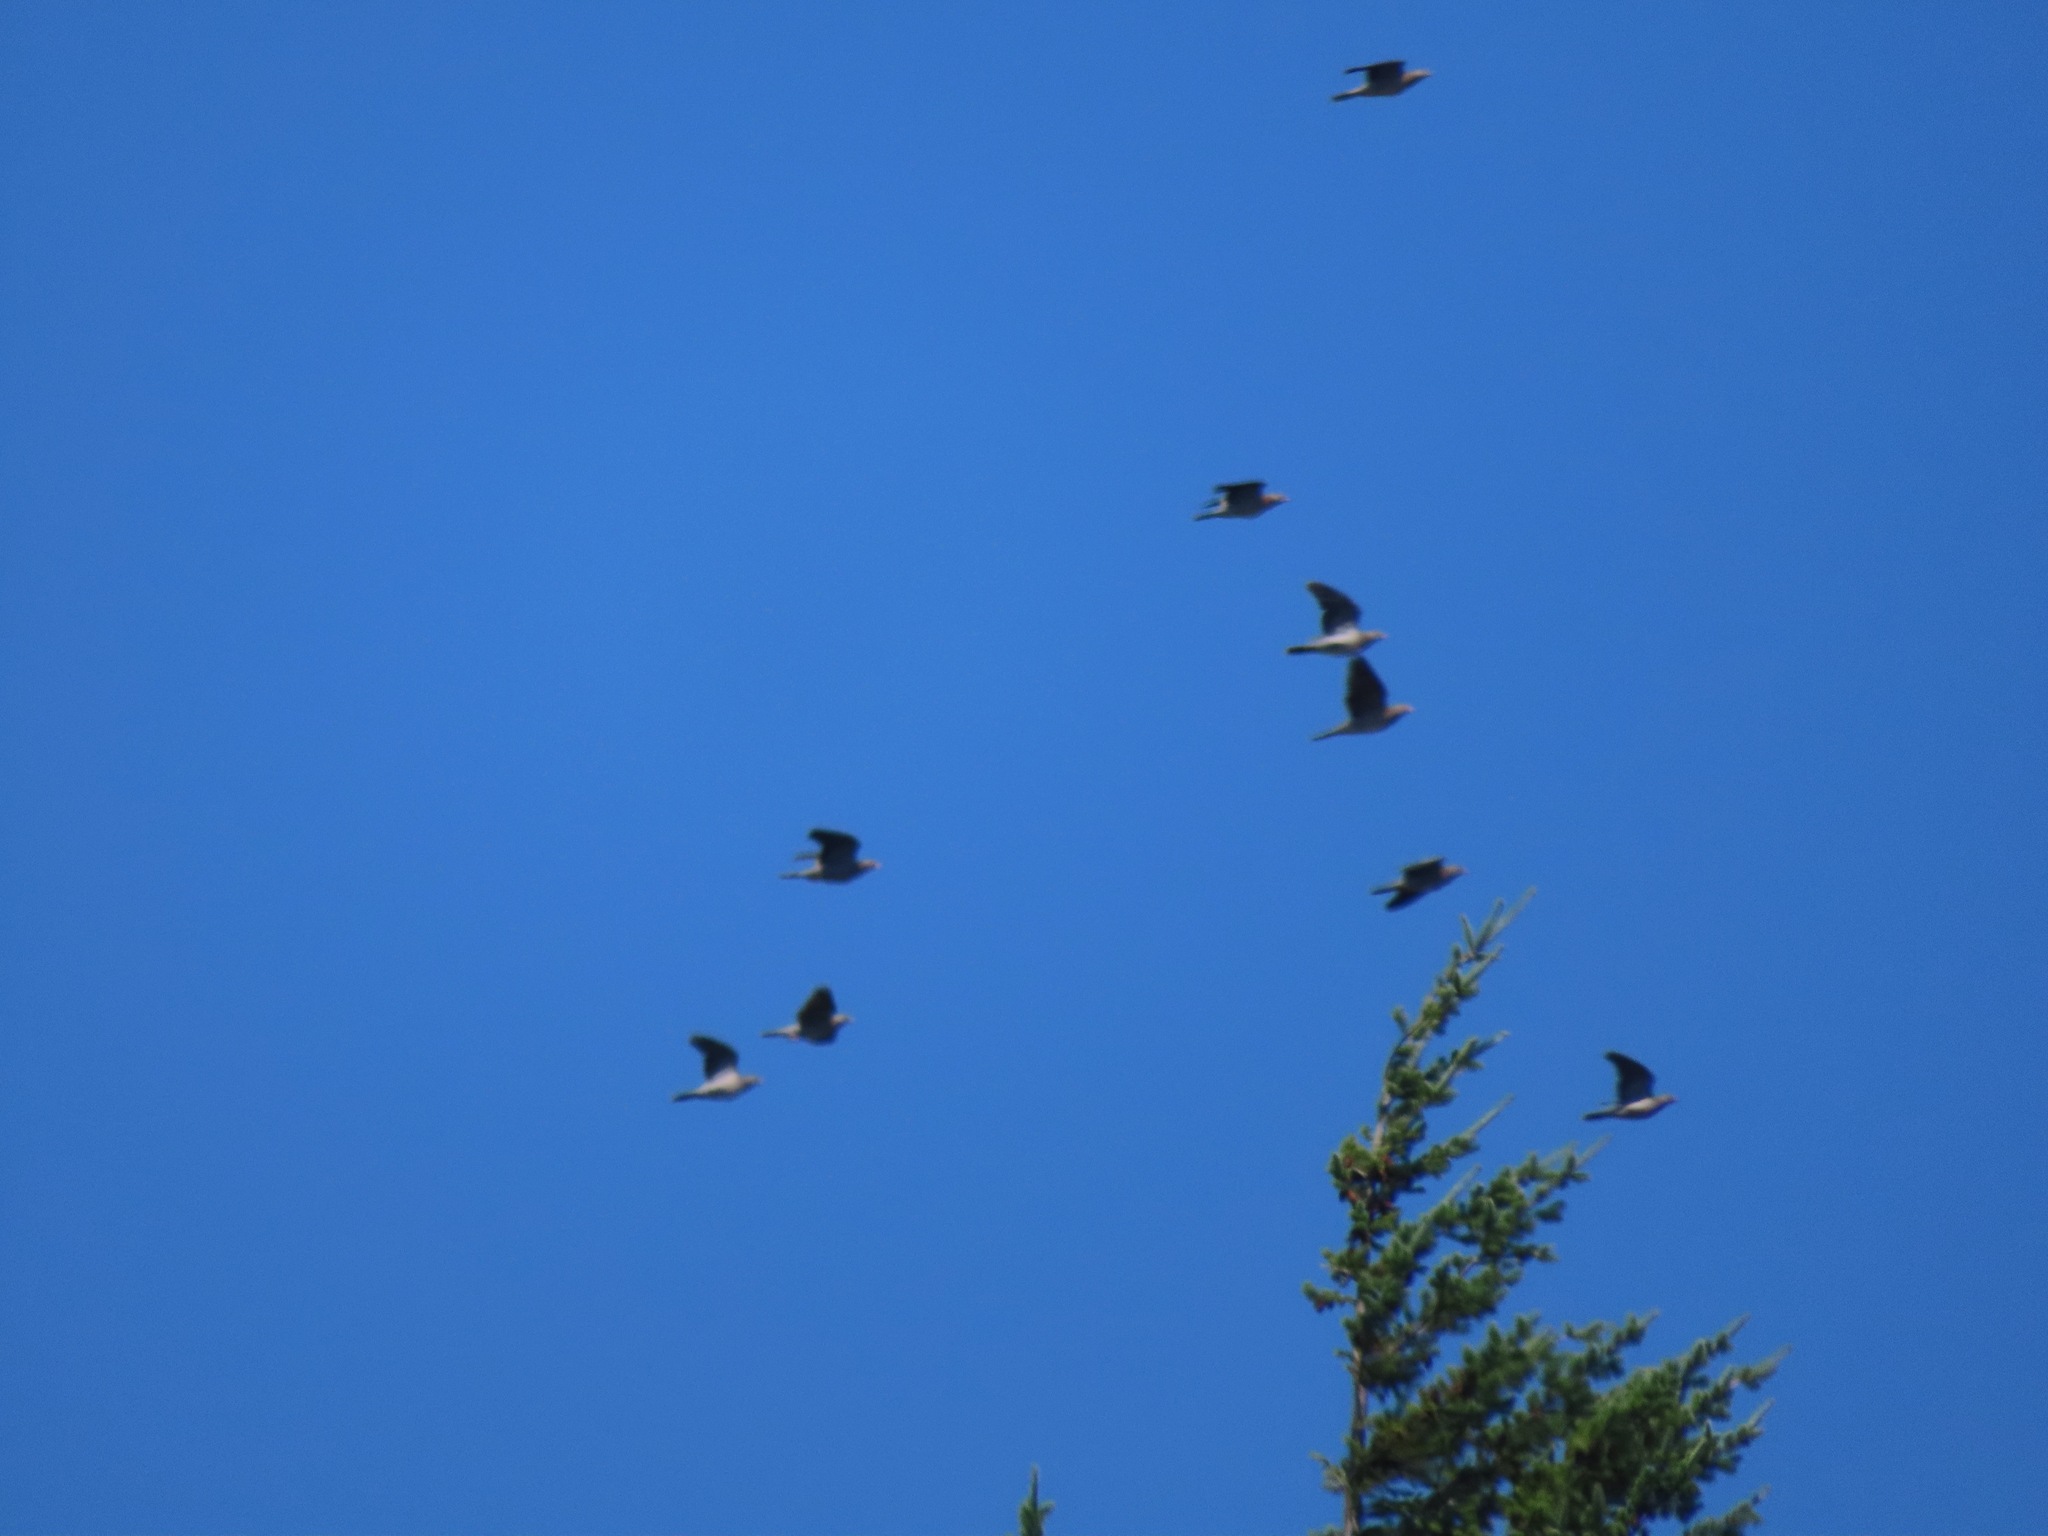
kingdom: Animalia
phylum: Chordata
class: Aves
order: Columbiformes
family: Columbidae
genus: Patagioenas
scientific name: Patagioenas fasciata
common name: Band-tailed pigeon
